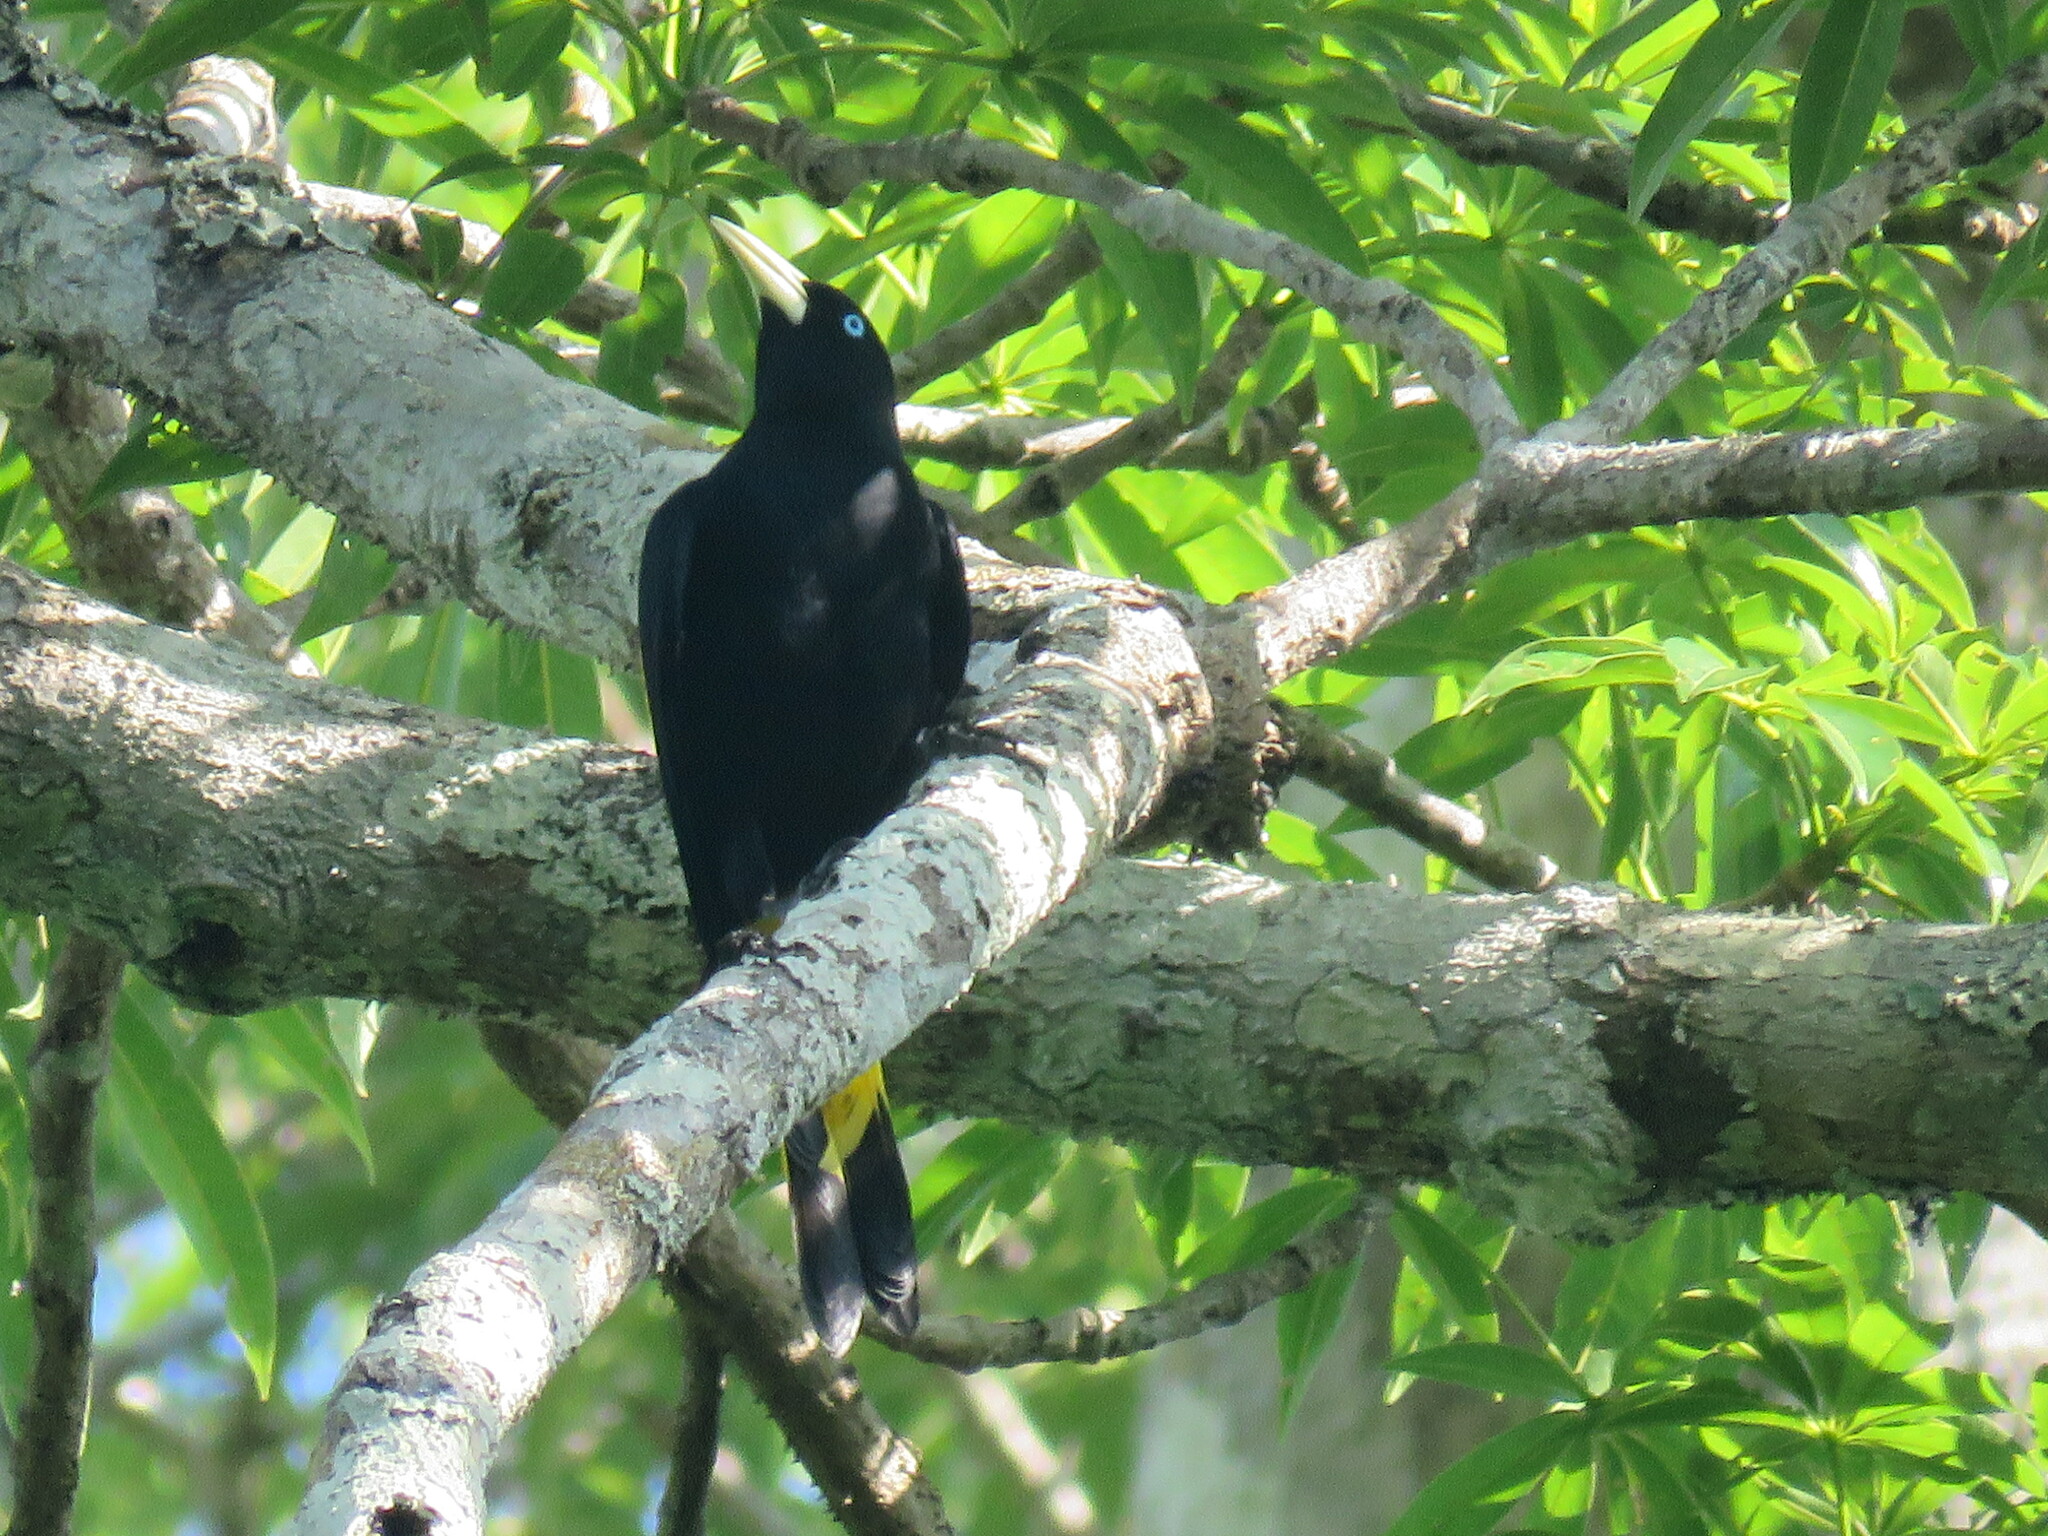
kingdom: Animalia
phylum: Chordata
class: Aves
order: Passeriformes
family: Icteridae
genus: Cacicus
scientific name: Cacicus cela
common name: Yellow-rumped cacique
